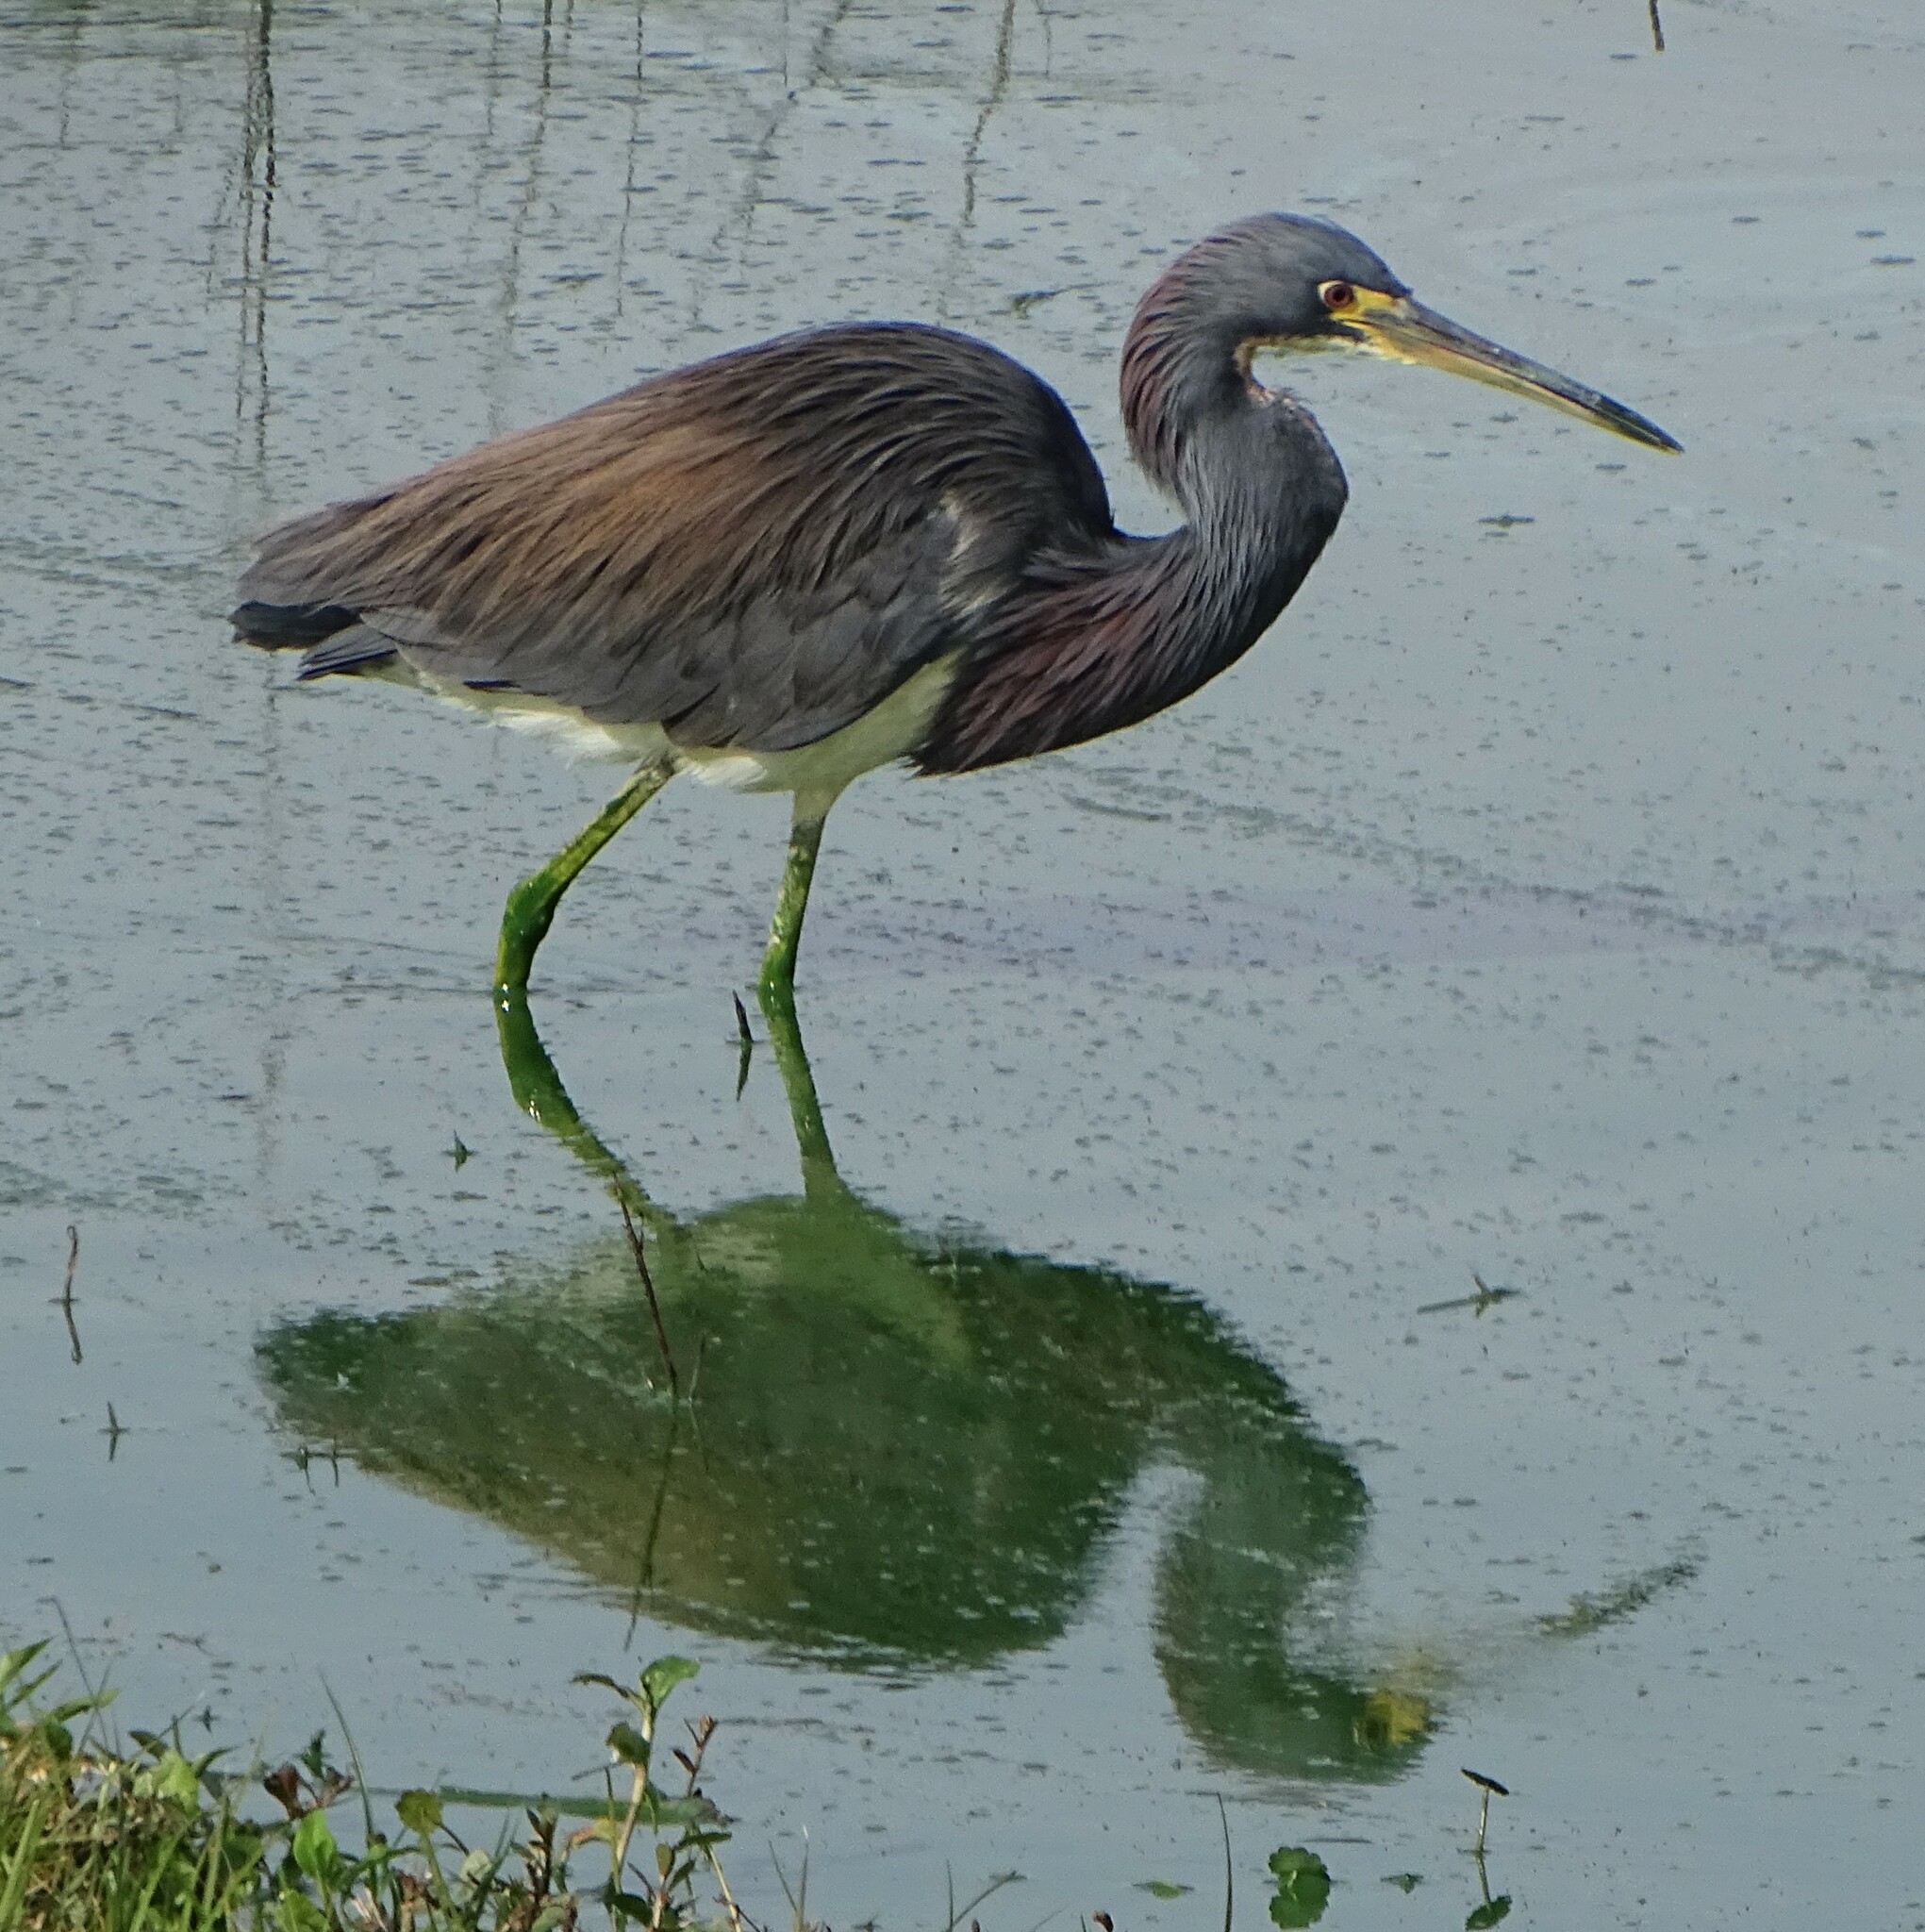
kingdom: Animalia
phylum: Chordata
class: Aves
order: Pelecaniformes
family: Ardeidae
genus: Egretta
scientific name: Egretta tricolor
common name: Tricolored heron
